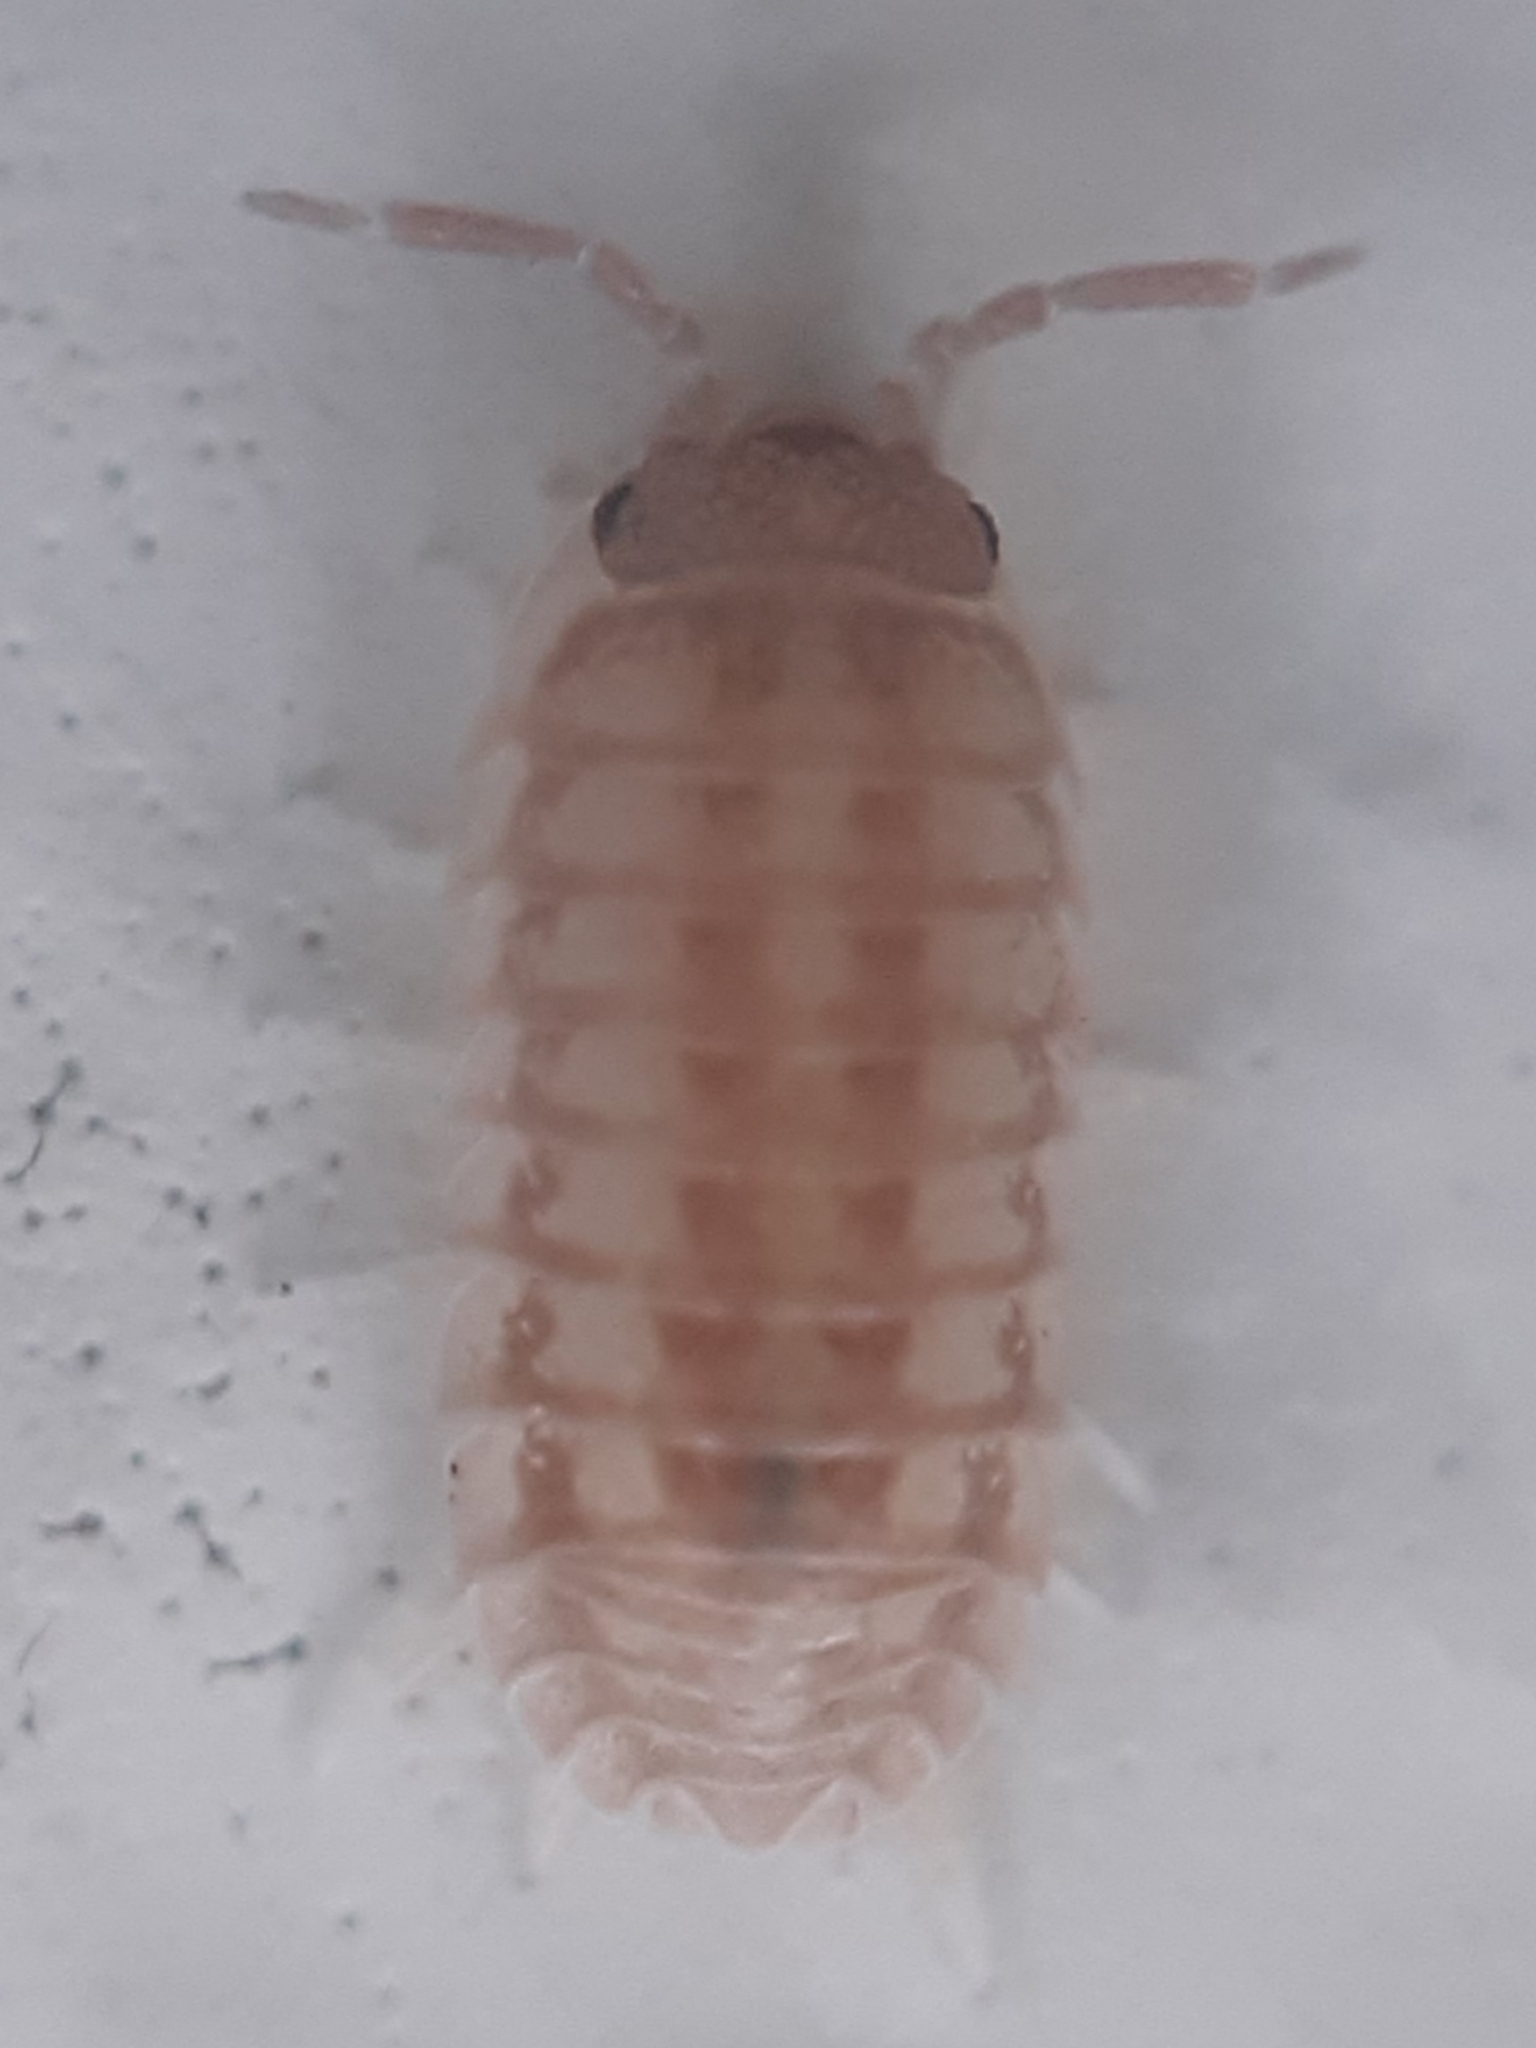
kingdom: Animalia
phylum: Arthropoda
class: Malacostraca
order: Isopoda
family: Armadillidiidae
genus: Armadillidium
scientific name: Armadillidium nasatum
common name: Isopod
